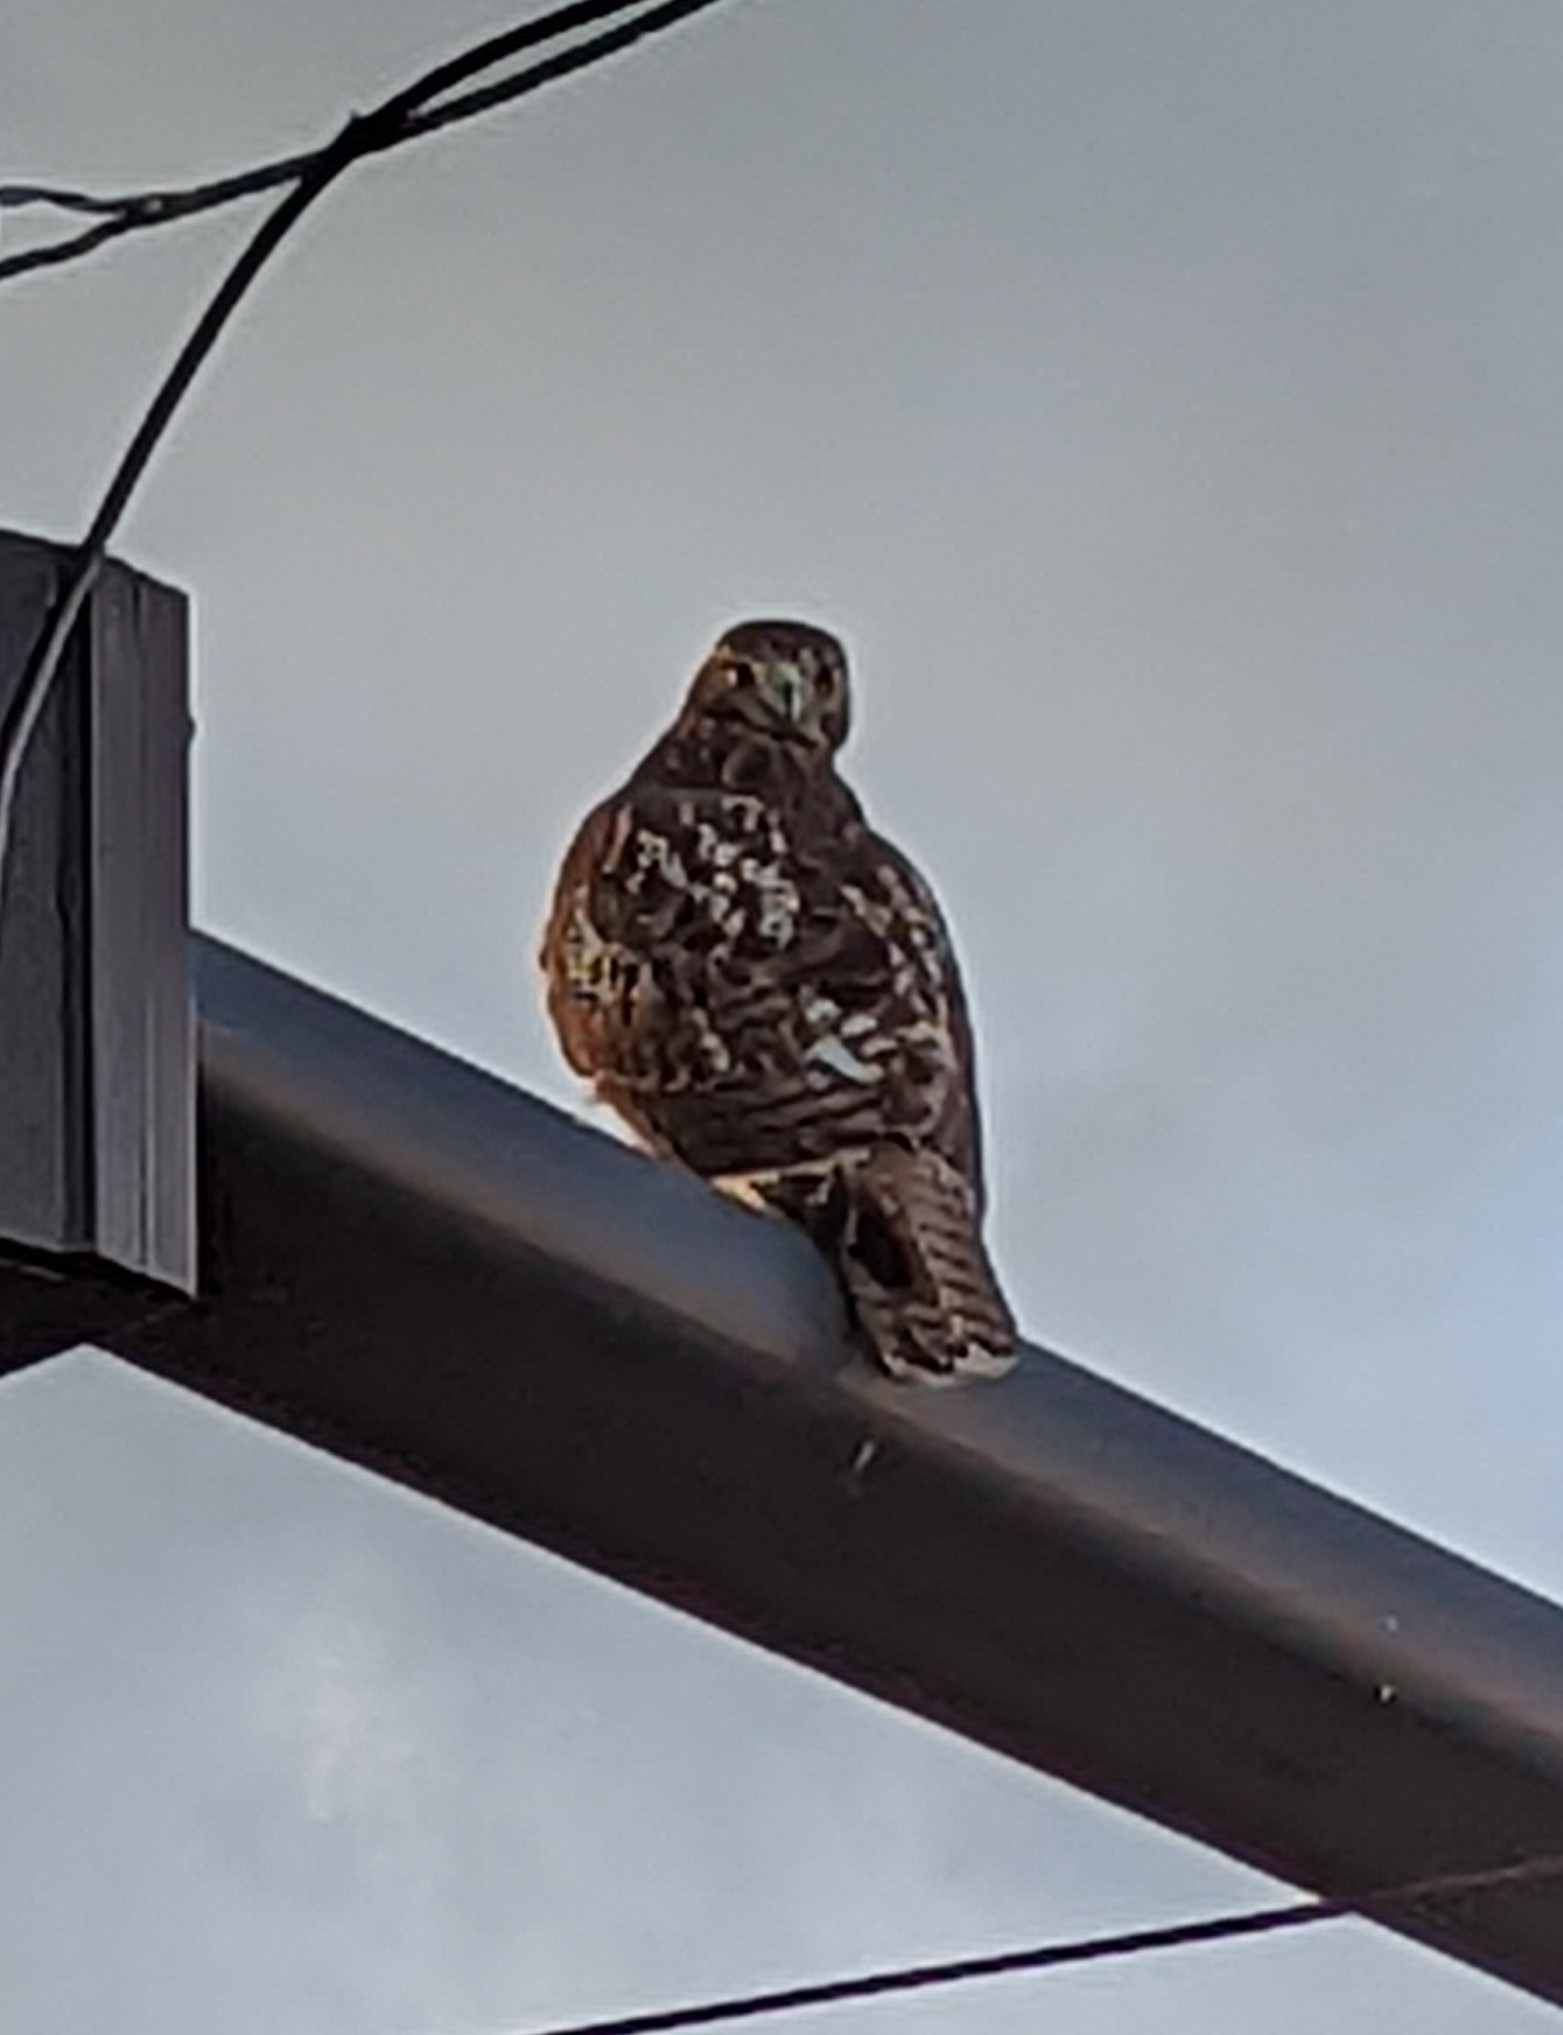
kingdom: Animalia
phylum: Chordata
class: Aves
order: Accipitriformes
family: Accipitridae
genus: Buteo
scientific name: Buteo jamaicensis
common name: Red-tailed hawk
